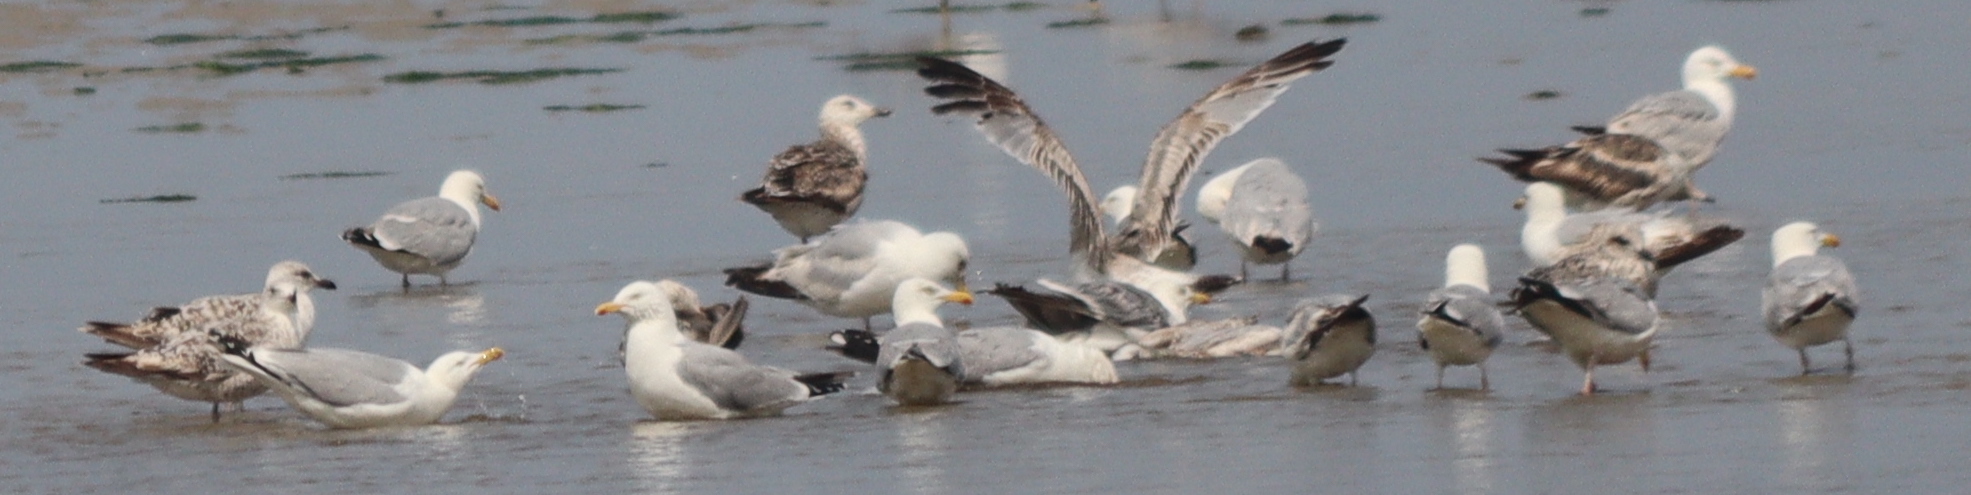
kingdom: Animalia
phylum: Chordata
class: Aves
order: Charadriiformes
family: Laridae
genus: Larus
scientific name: Larus argentatus
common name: Herring gull
